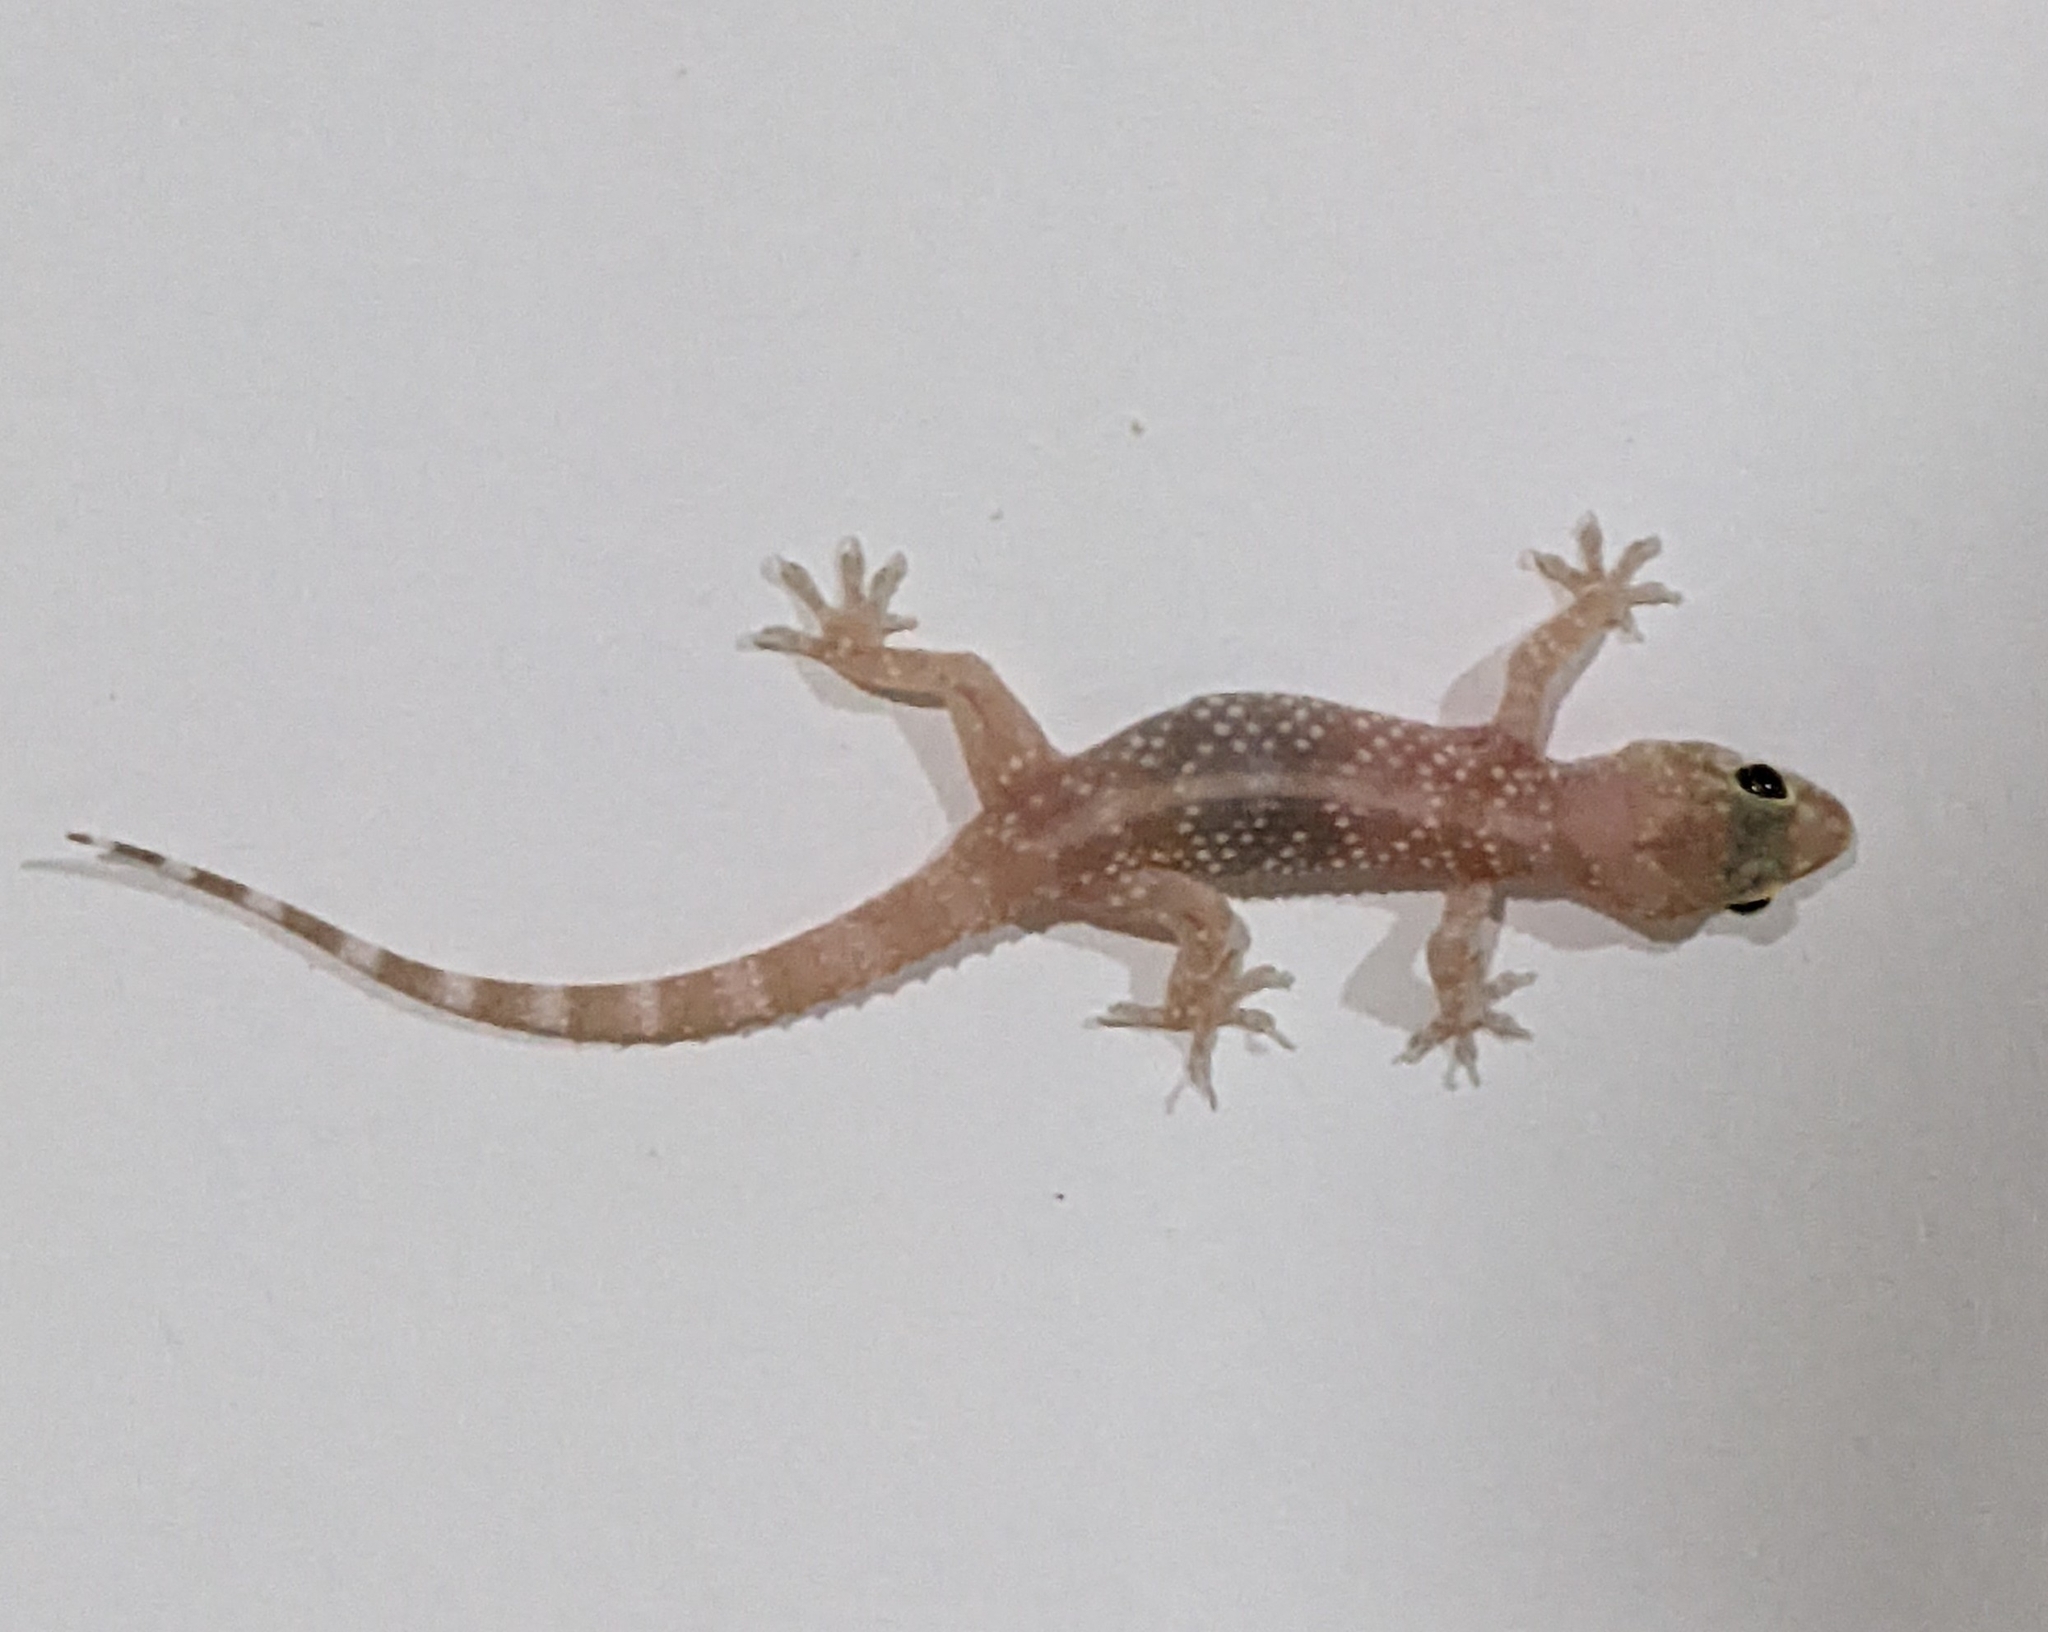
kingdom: Animalia
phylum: Chordata
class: Squamata
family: Gekkonidae
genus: Hemidactylus
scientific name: Hemidactylus turcicus
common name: Turkish gecko
